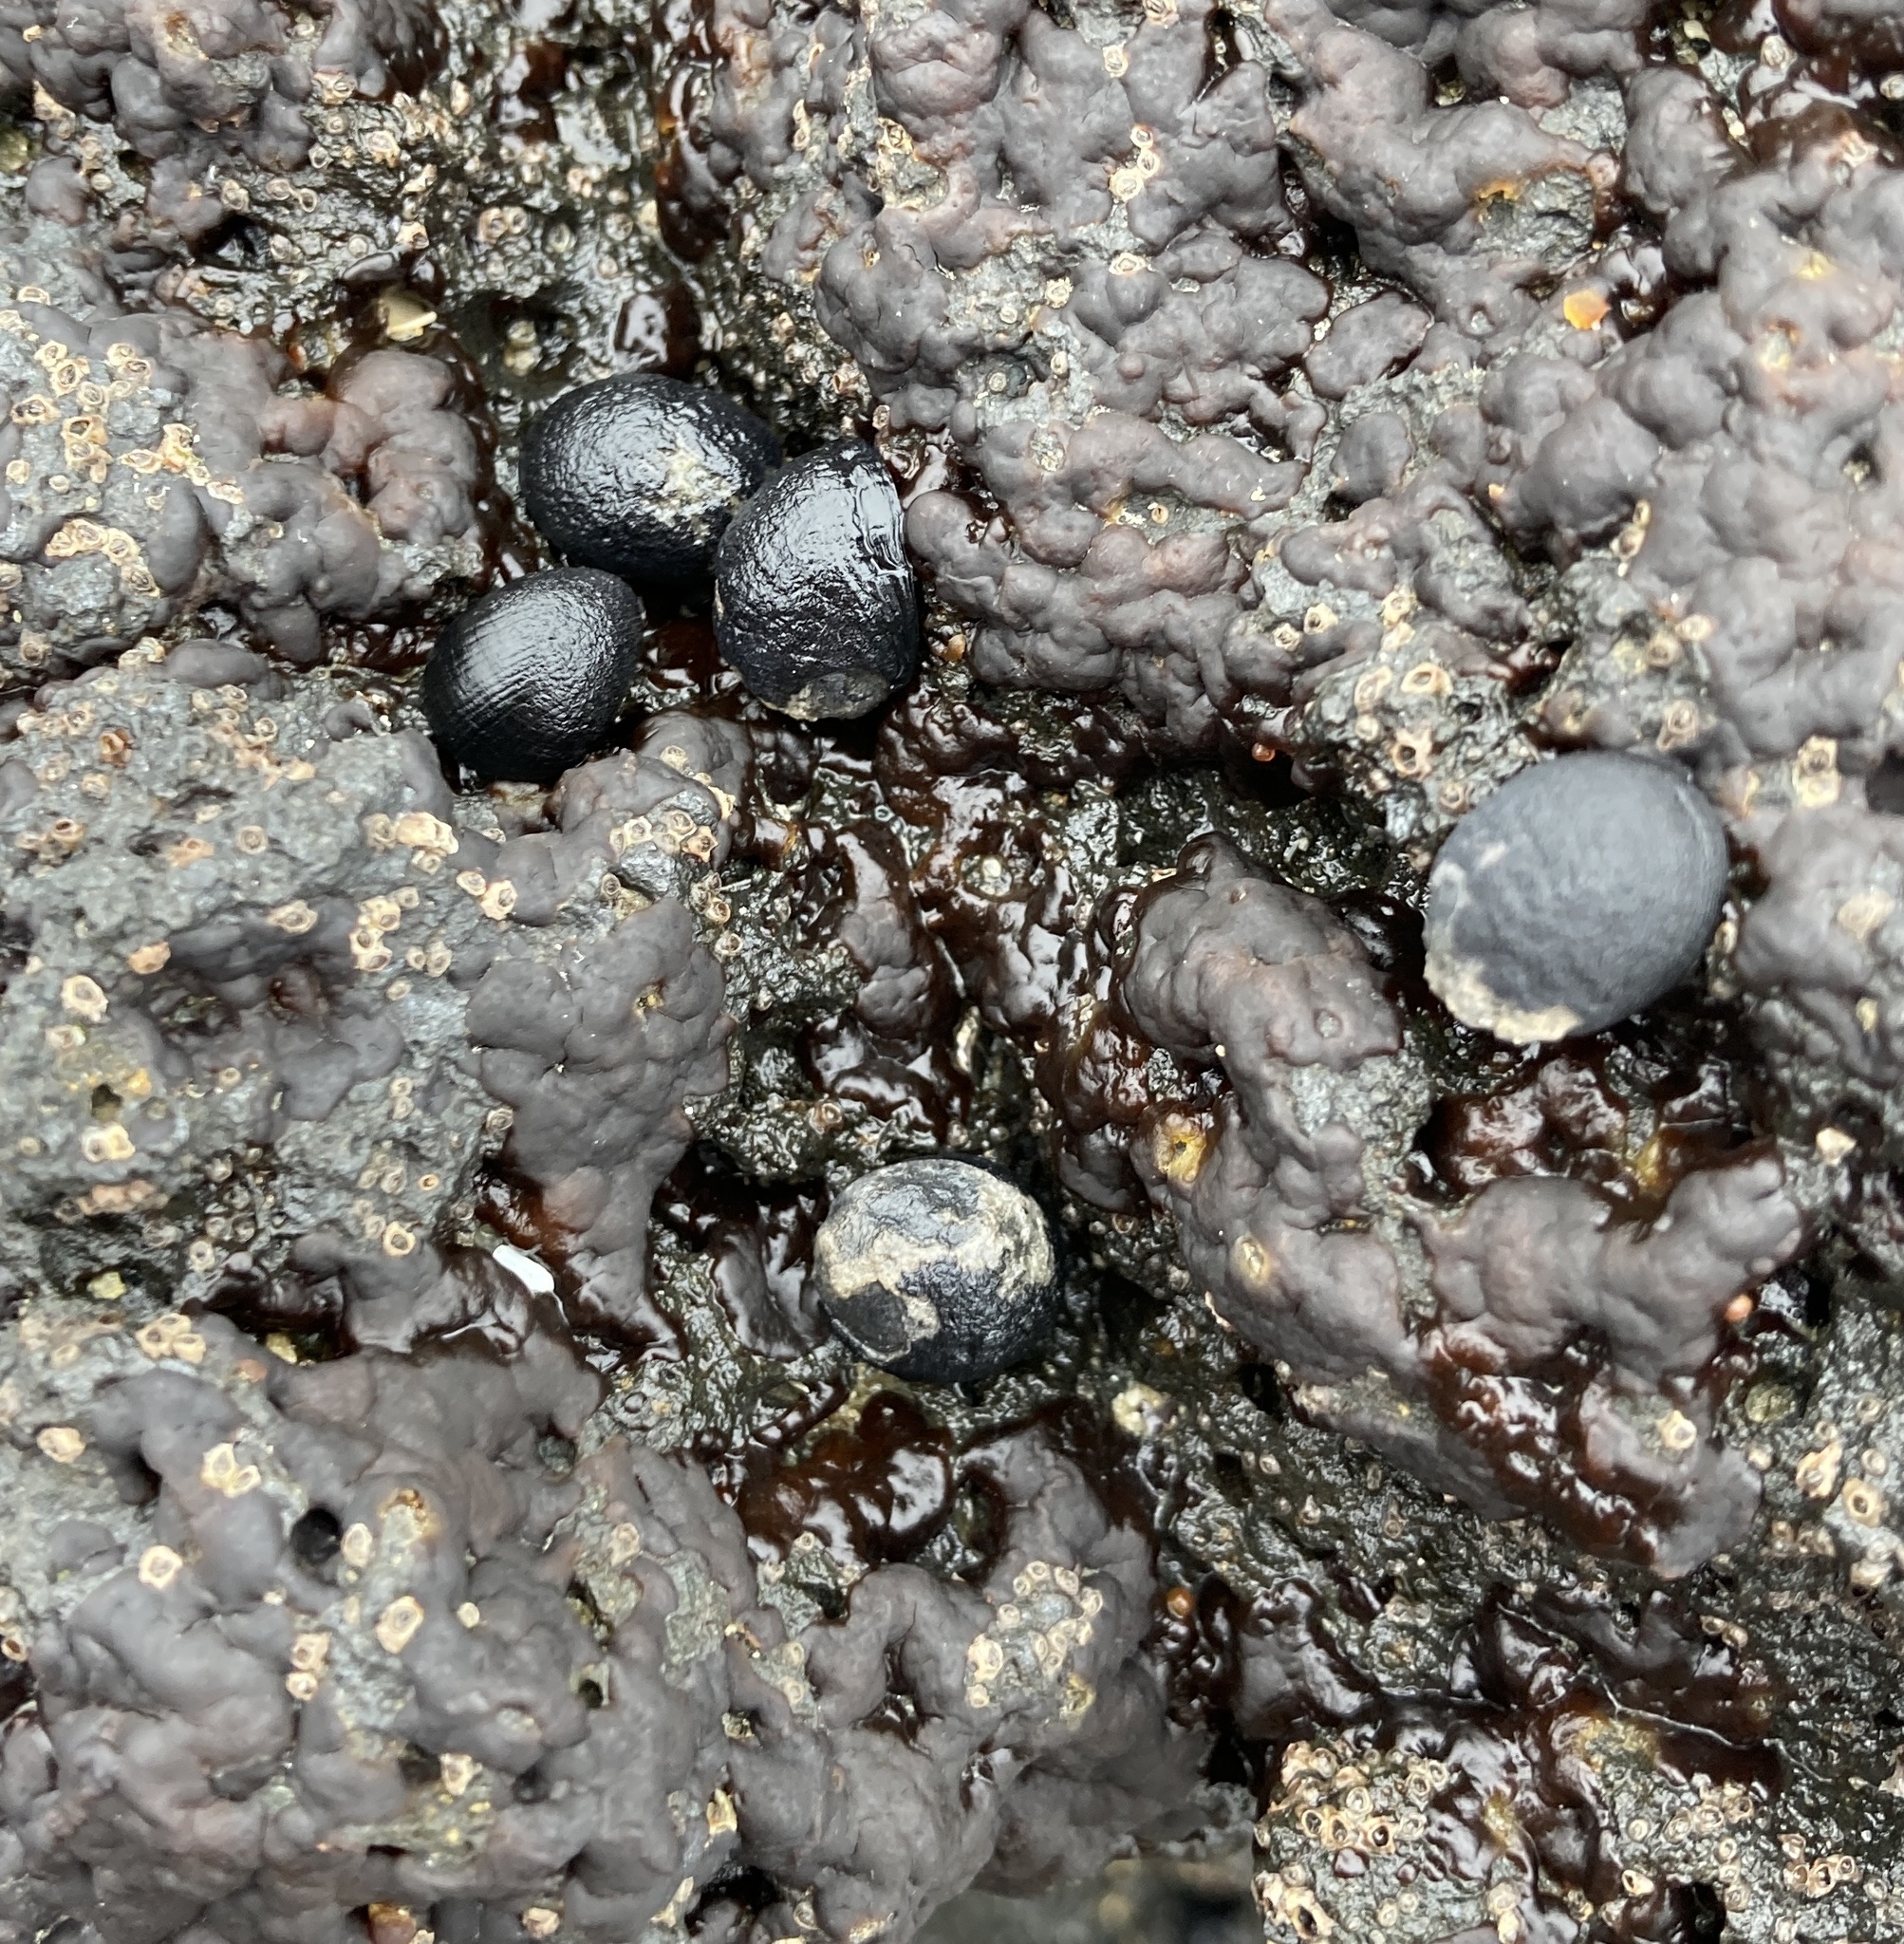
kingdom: Animalia
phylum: Mollusca
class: Gastropoda
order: Cycloneritida
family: Neritidae
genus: Nerita
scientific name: Nerita melanotragus
